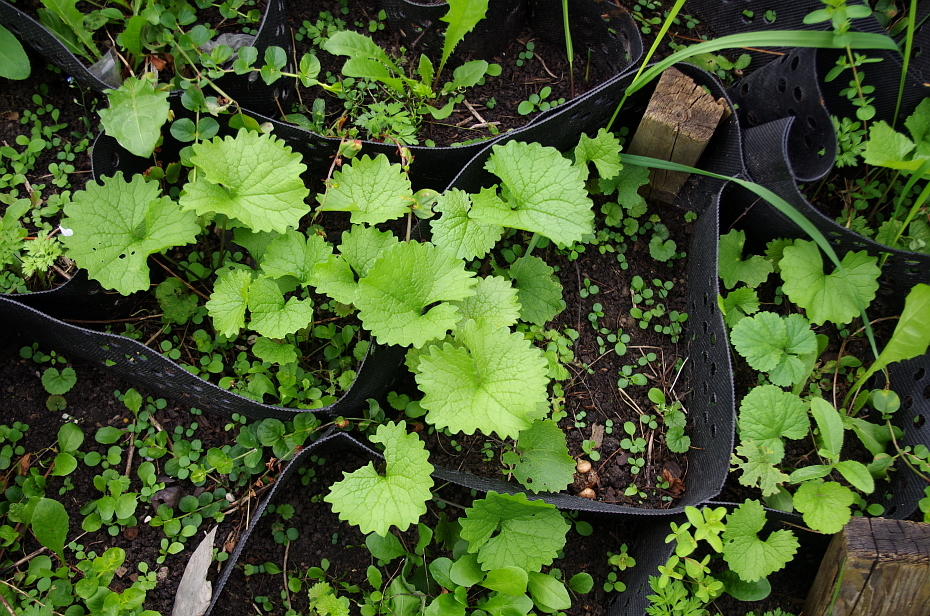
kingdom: Plantae
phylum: Tracheophyta
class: Magnoliopsida
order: Brassicales
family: Brassicaceae
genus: Alliaria
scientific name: Alliaria petiolata
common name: Garlic mustard
